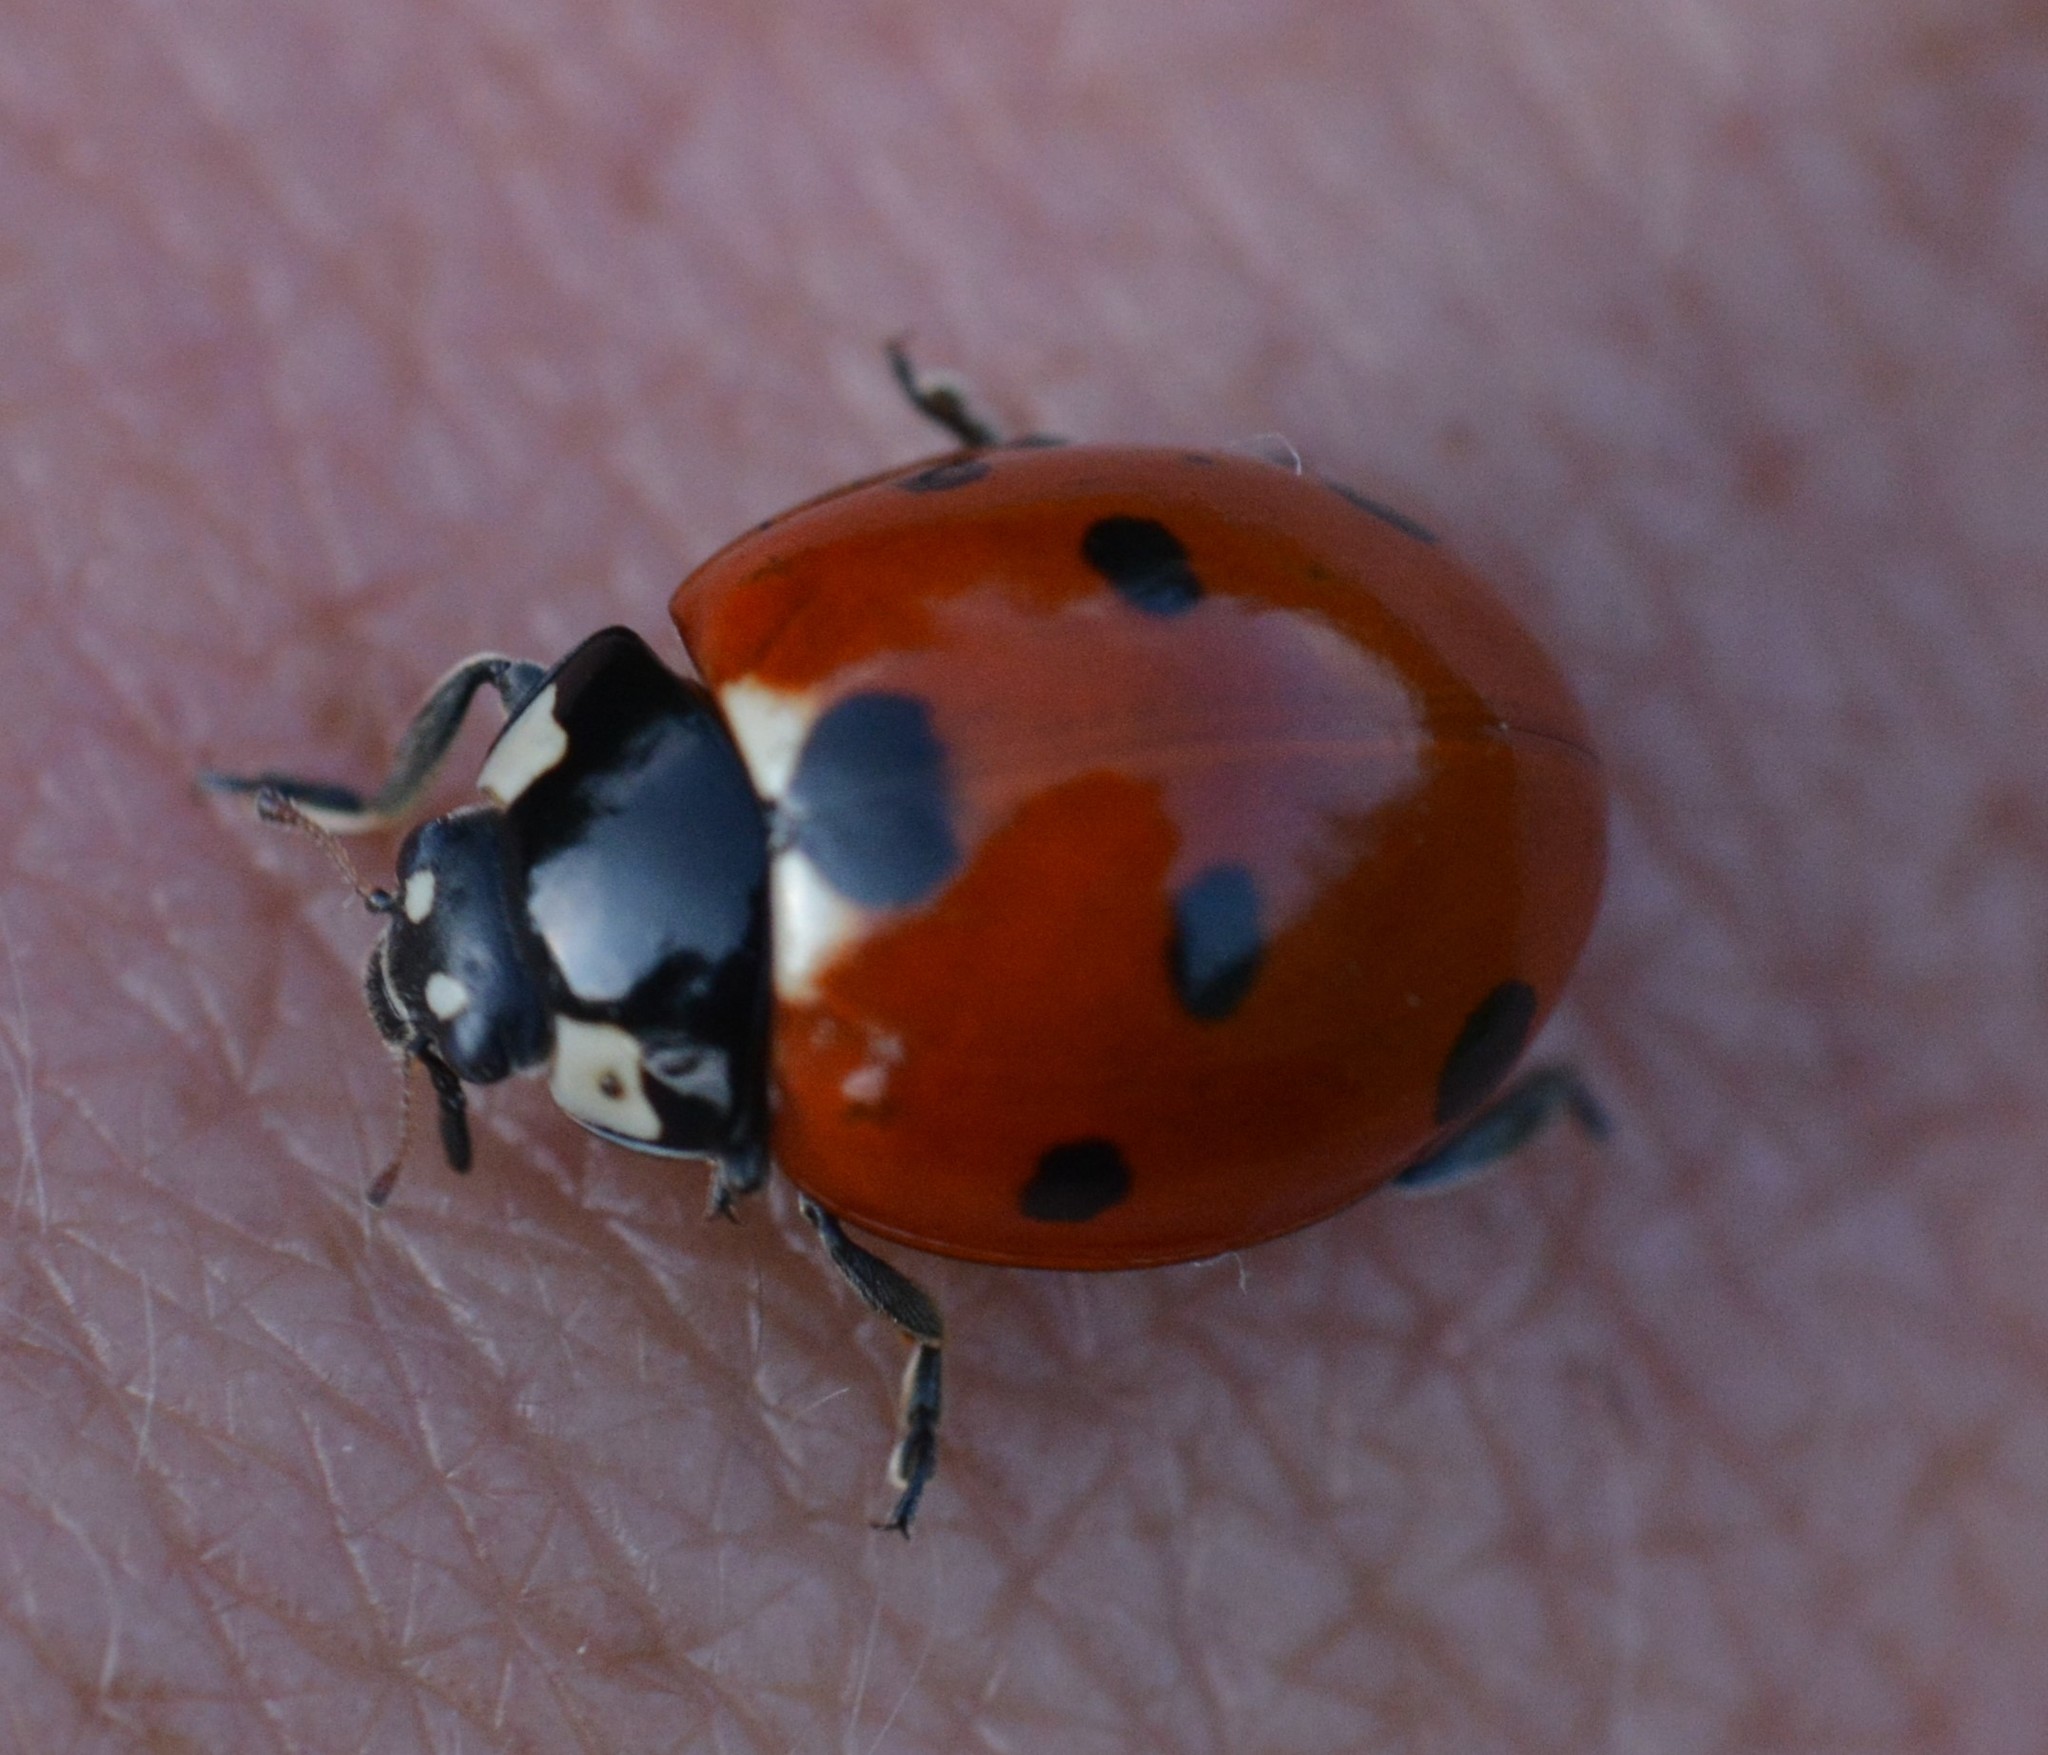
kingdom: Animalia
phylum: Arthropoda
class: Insecta
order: Coleoptera
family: Coccinellidae
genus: Coccinella
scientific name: Coccinella septempunctata
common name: Sevenspotted lady beetle
